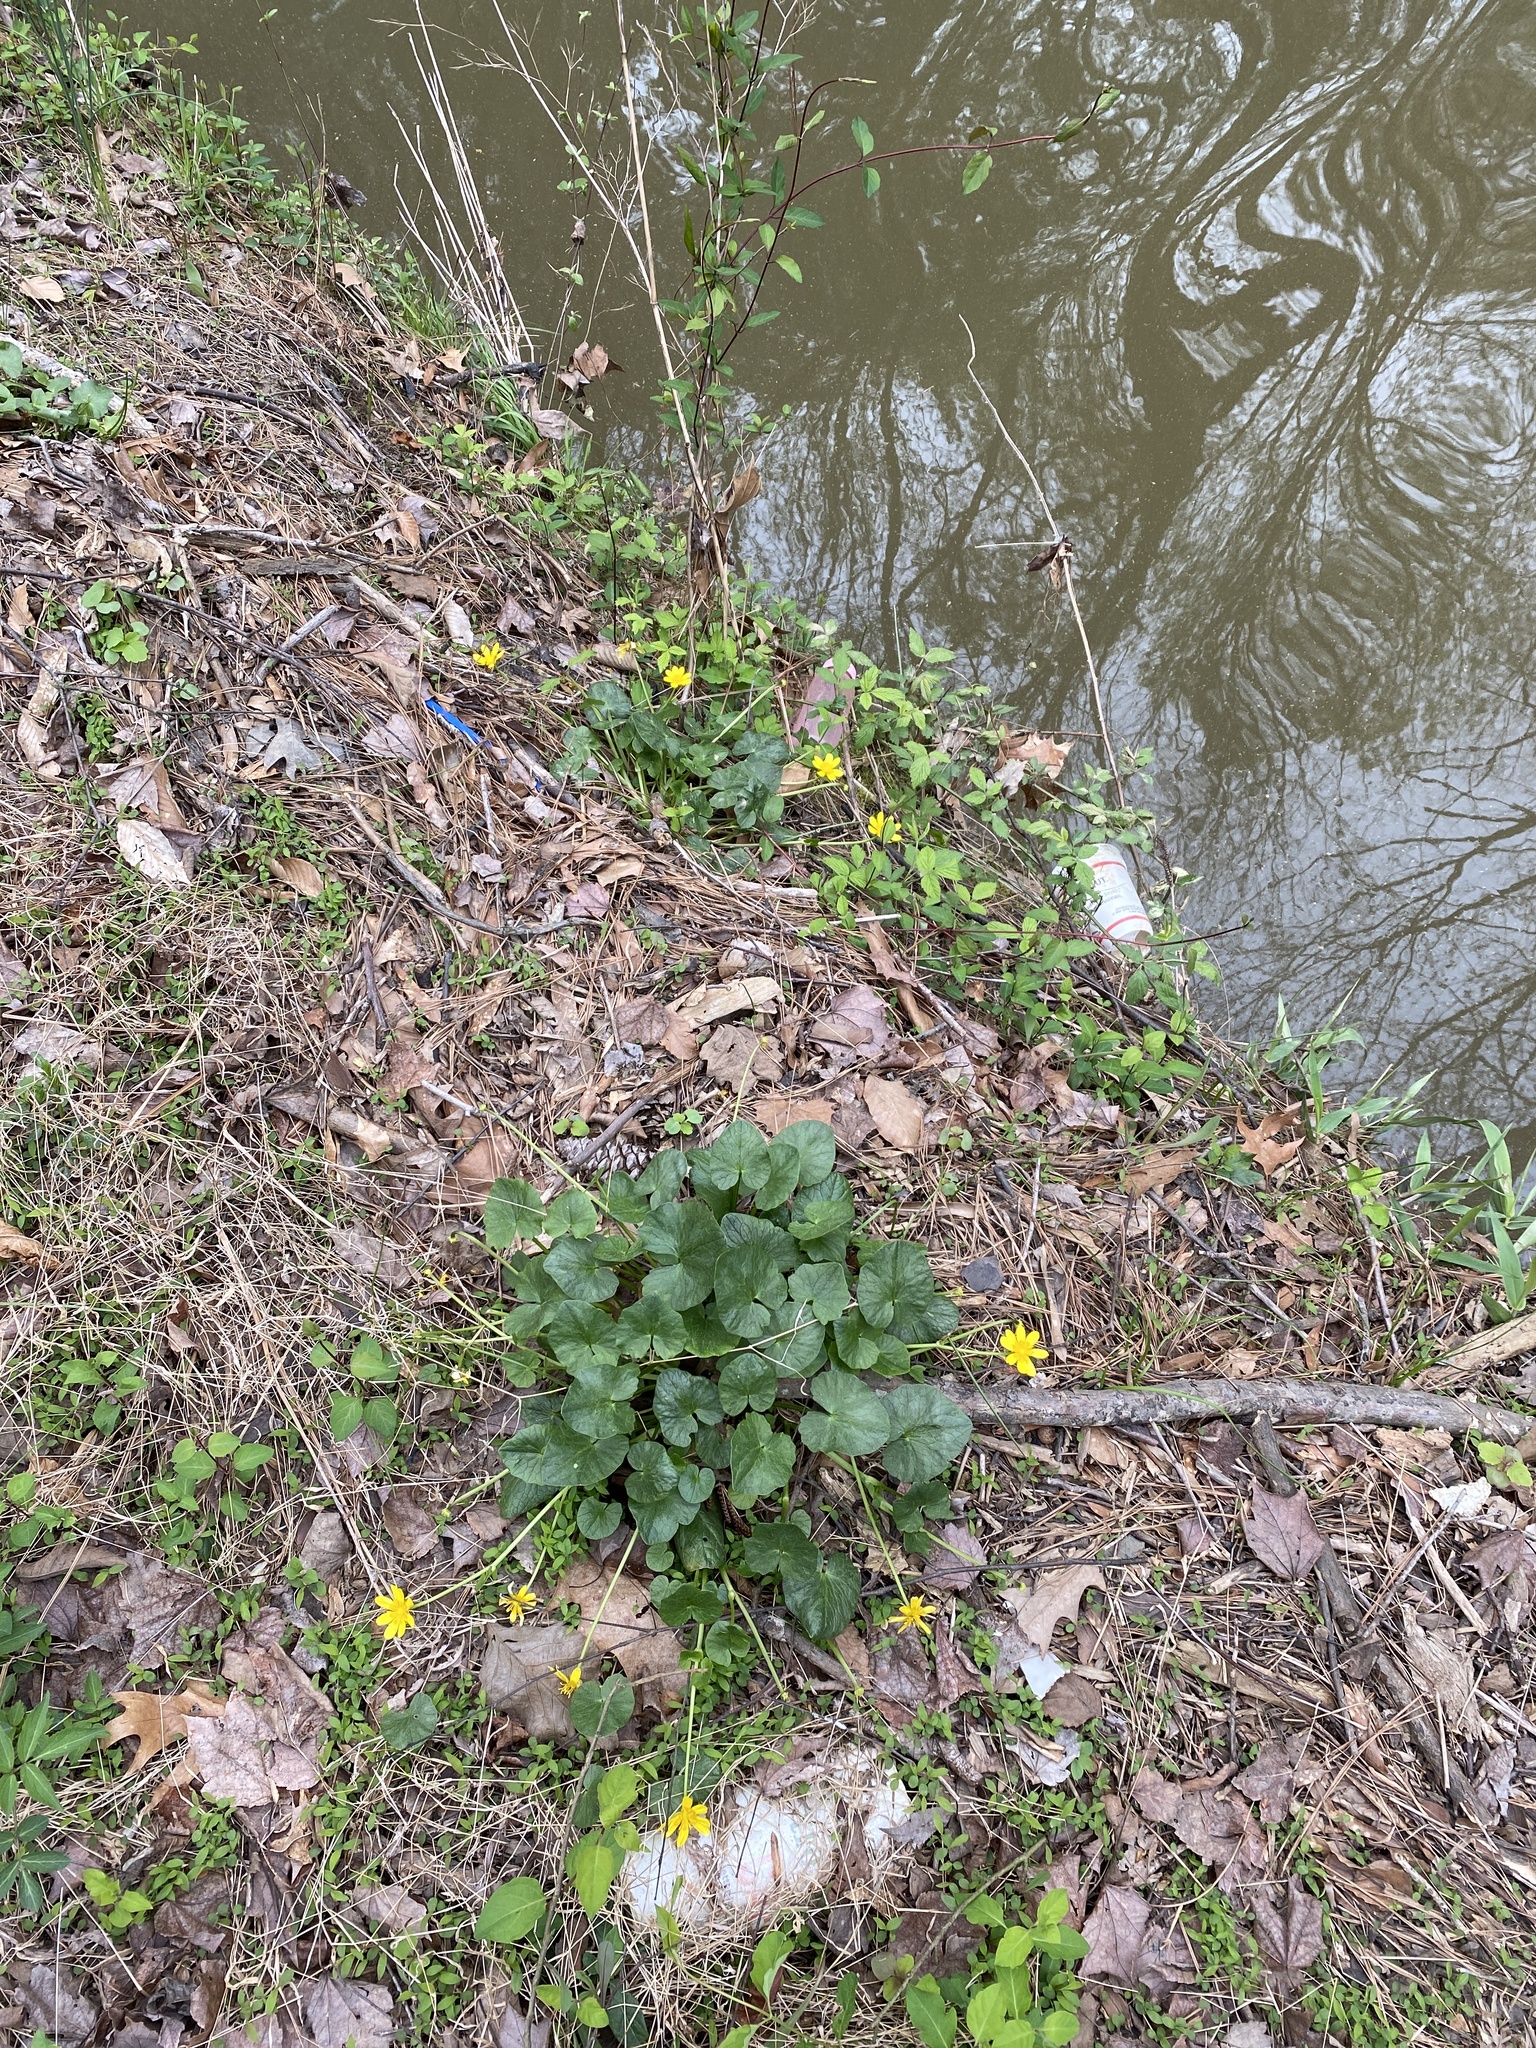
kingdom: Plantae
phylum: Tracheophyta
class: Magnoliopsida
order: Ranunculales
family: Ranunculaceae
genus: Ficaria
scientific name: Ficaria verna
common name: Lesser celandine
